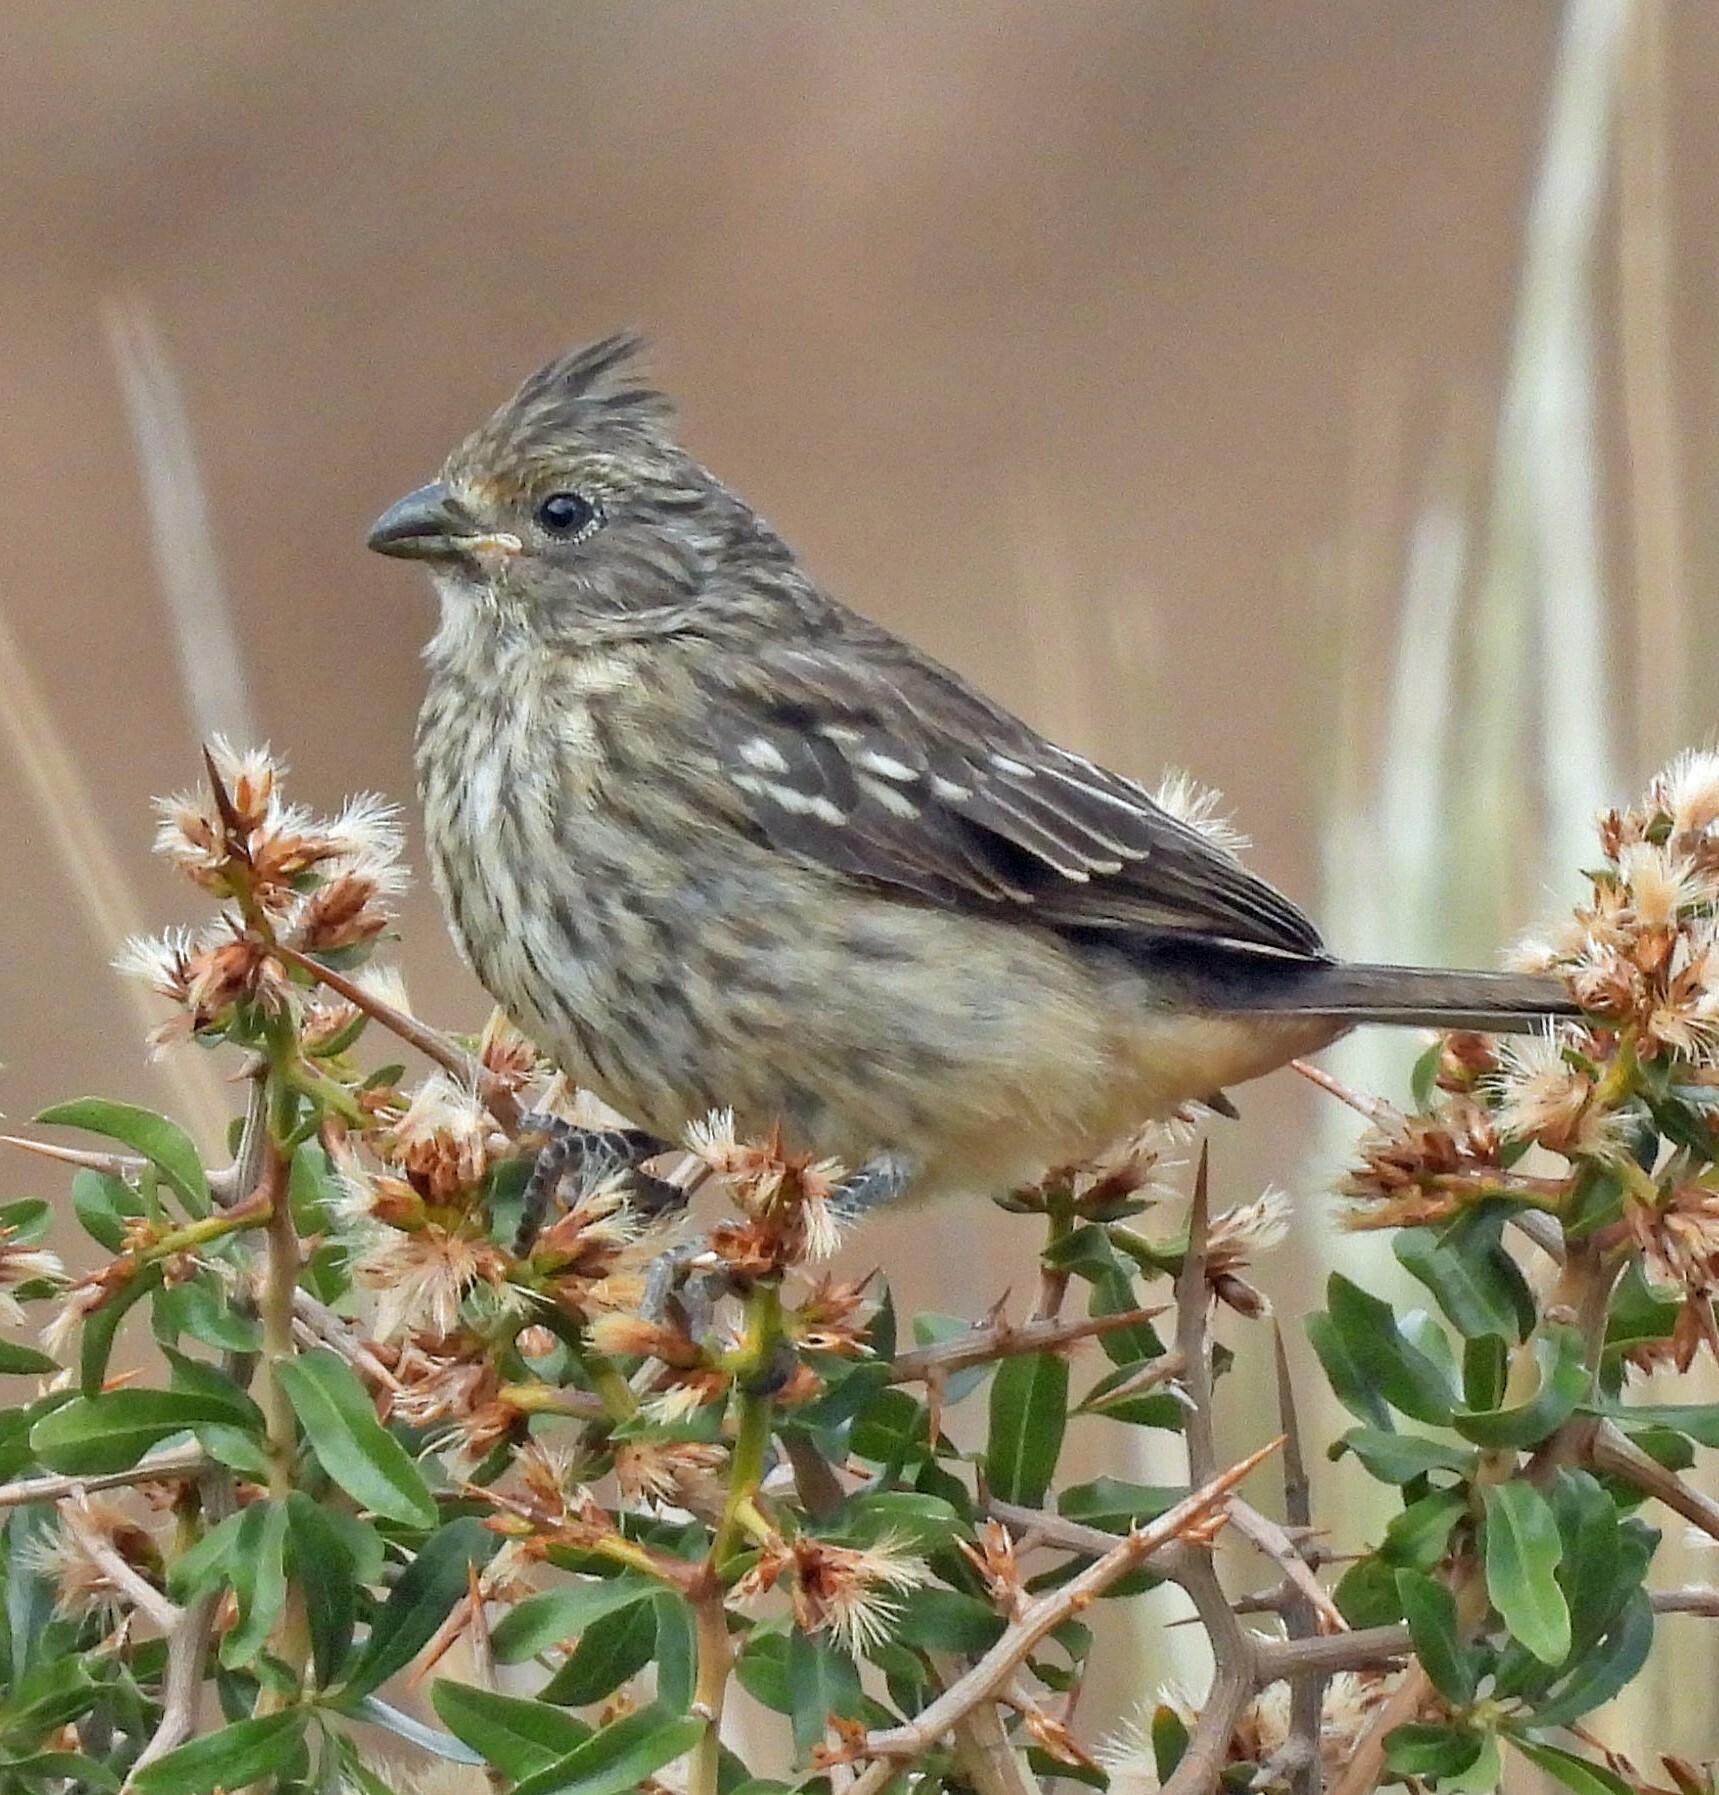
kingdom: Animalia
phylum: Chordata
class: Aves
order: Passeriformes
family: Cotingidae
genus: Phytotoma
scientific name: Phytotoma rutila
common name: White-tipped plantcutter
